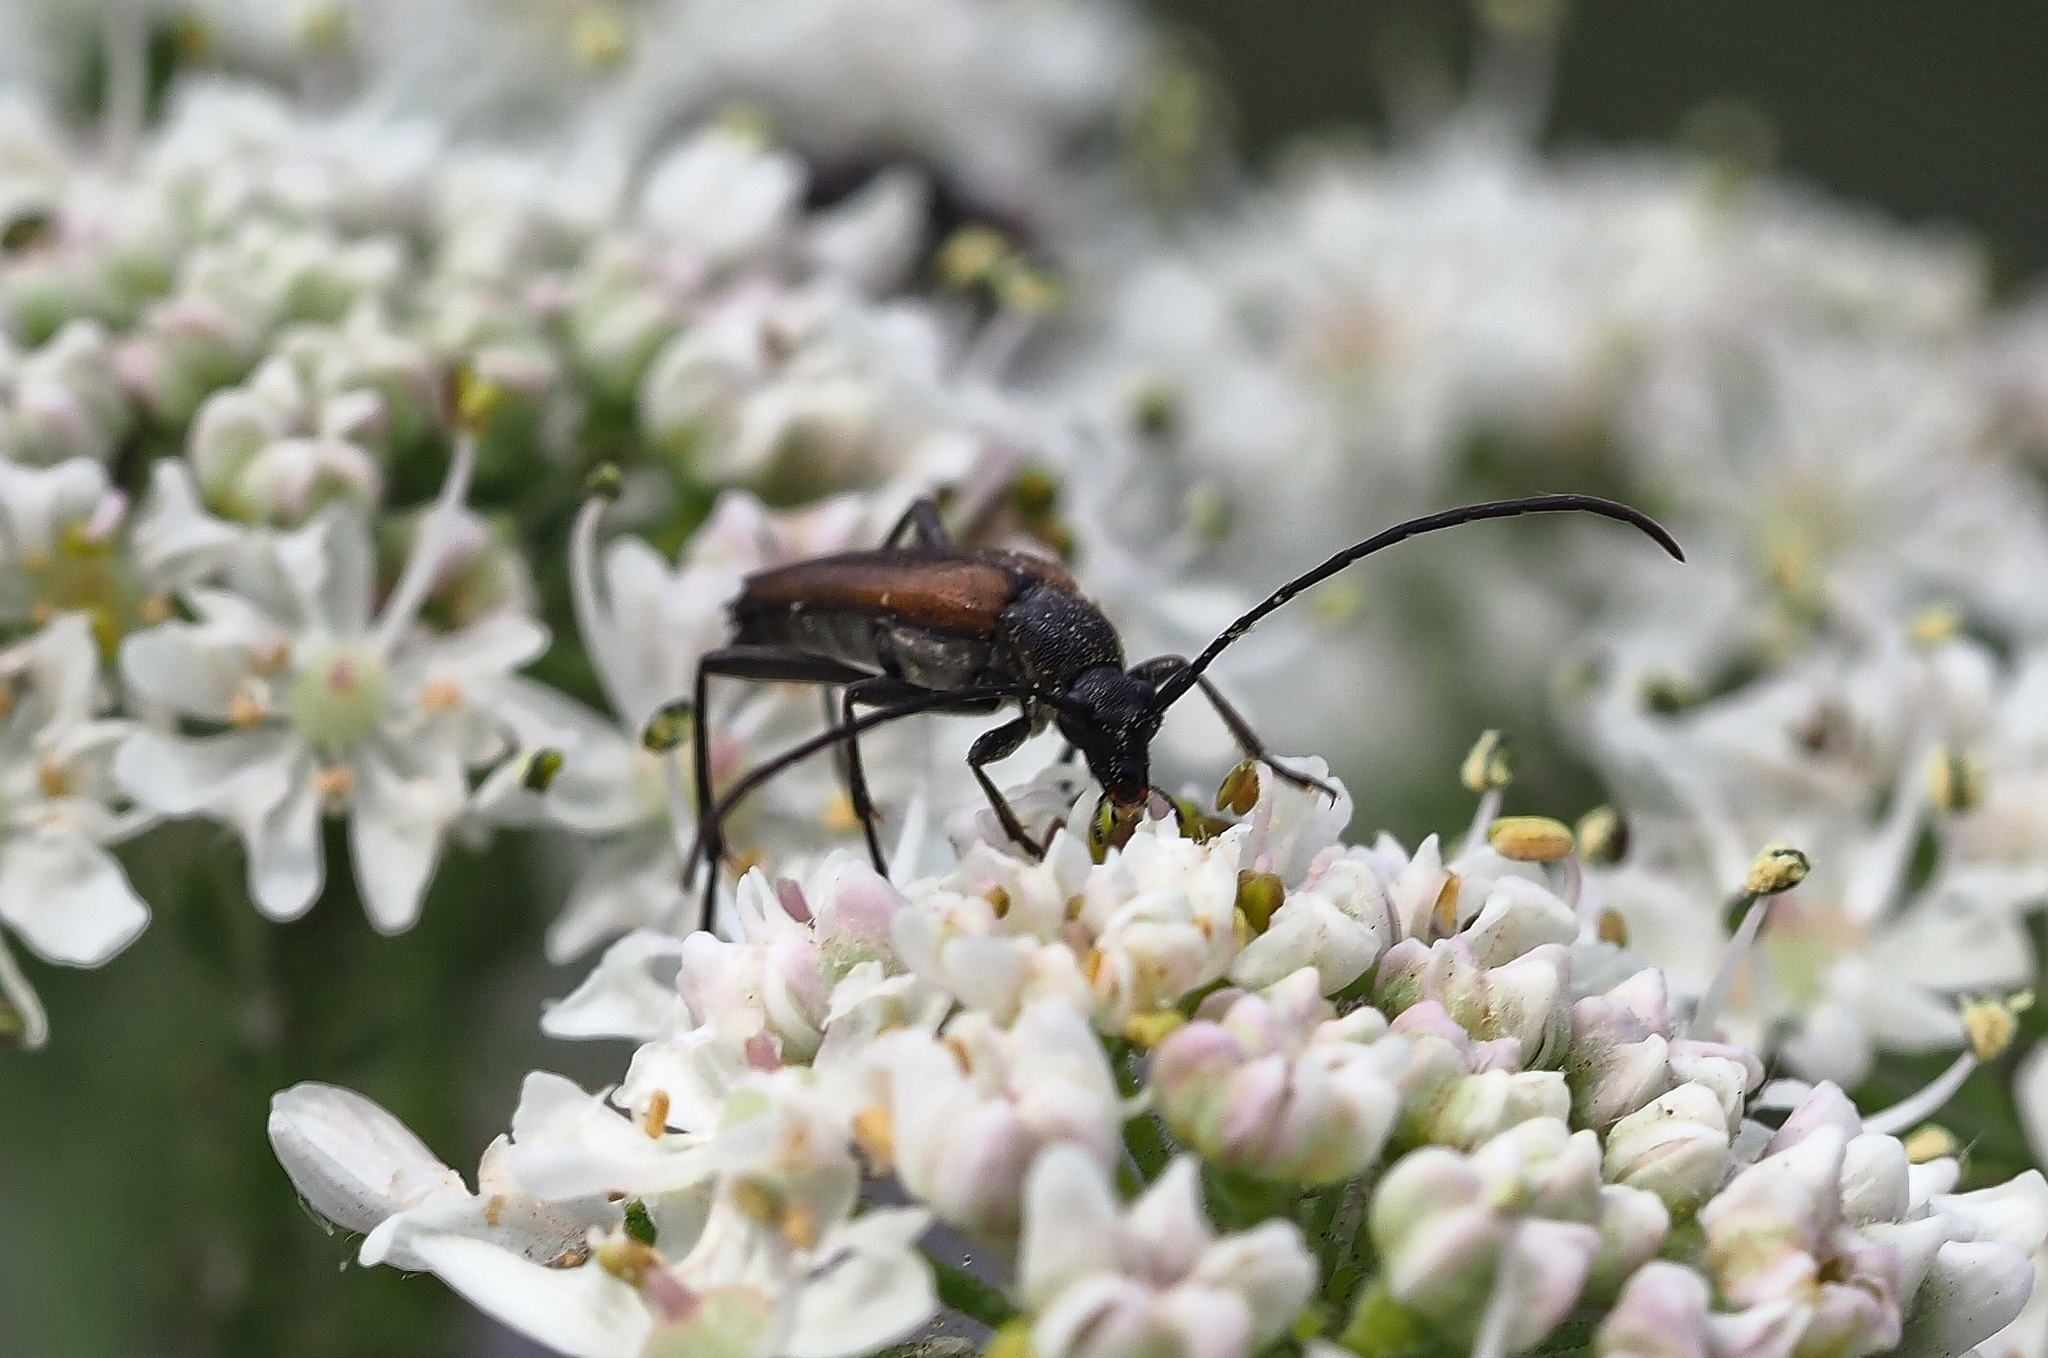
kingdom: Animalia
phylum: Arthropoda
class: Insecta
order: Coleoptera
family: Cerambycidae
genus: Stenurella
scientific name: Stenurella melanura
